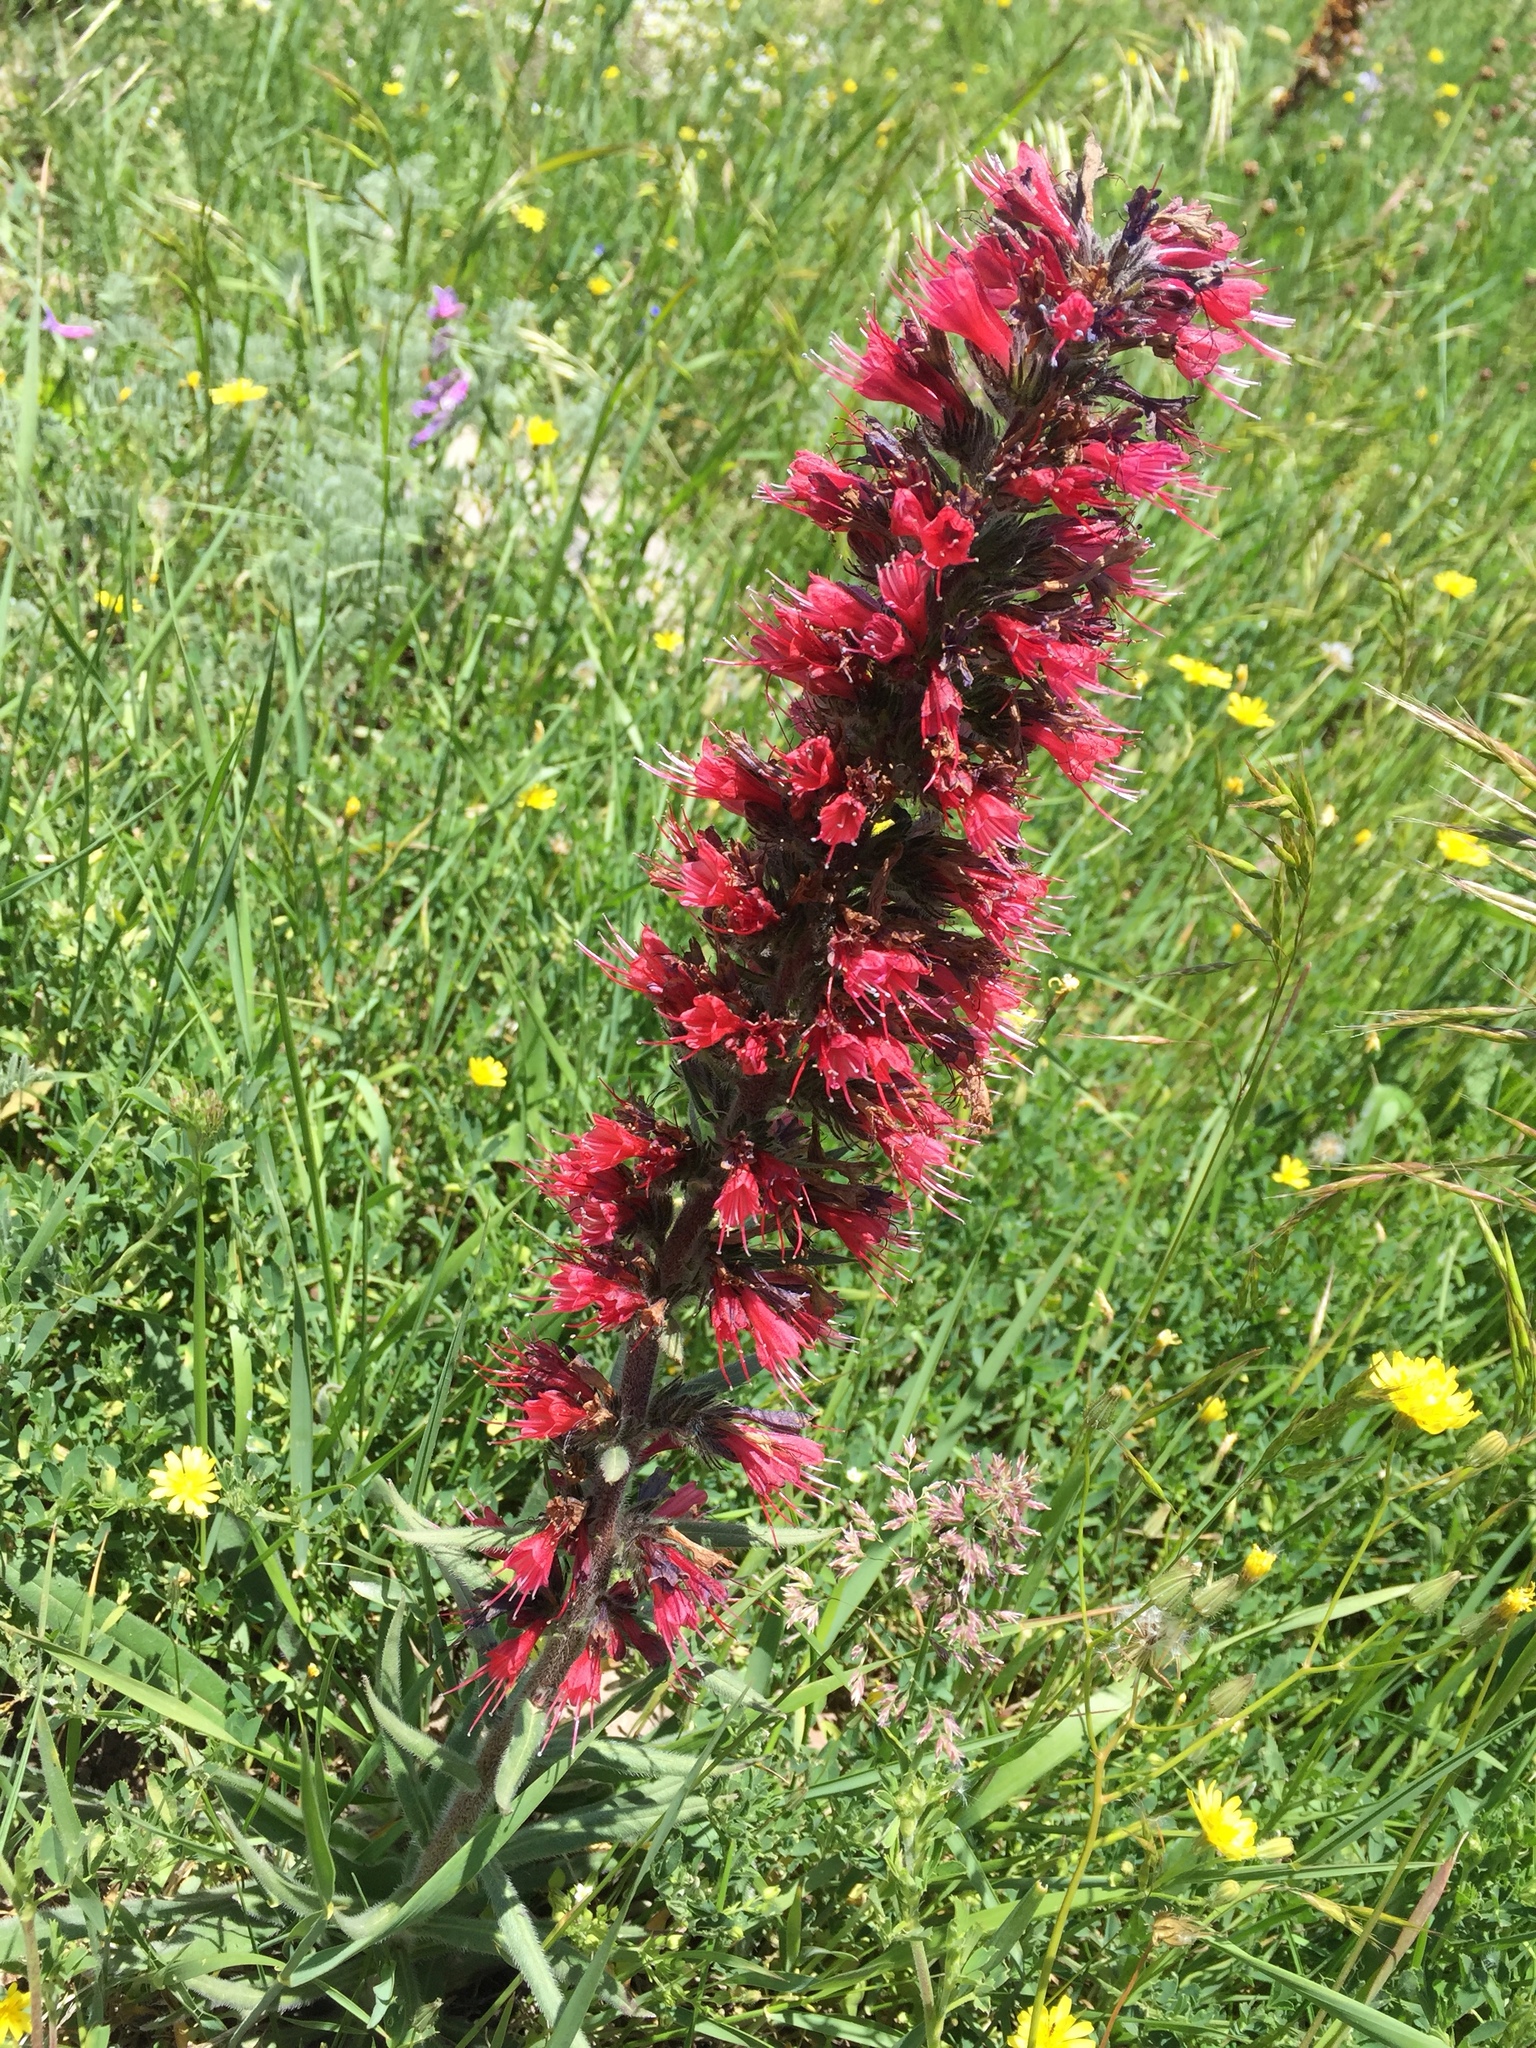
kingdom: Plantae
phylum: Tracheophyta
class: Magnoliopsida
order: Boraginales
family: Boraginaceae
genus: Pontechium
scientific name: Pontechium maculatum
